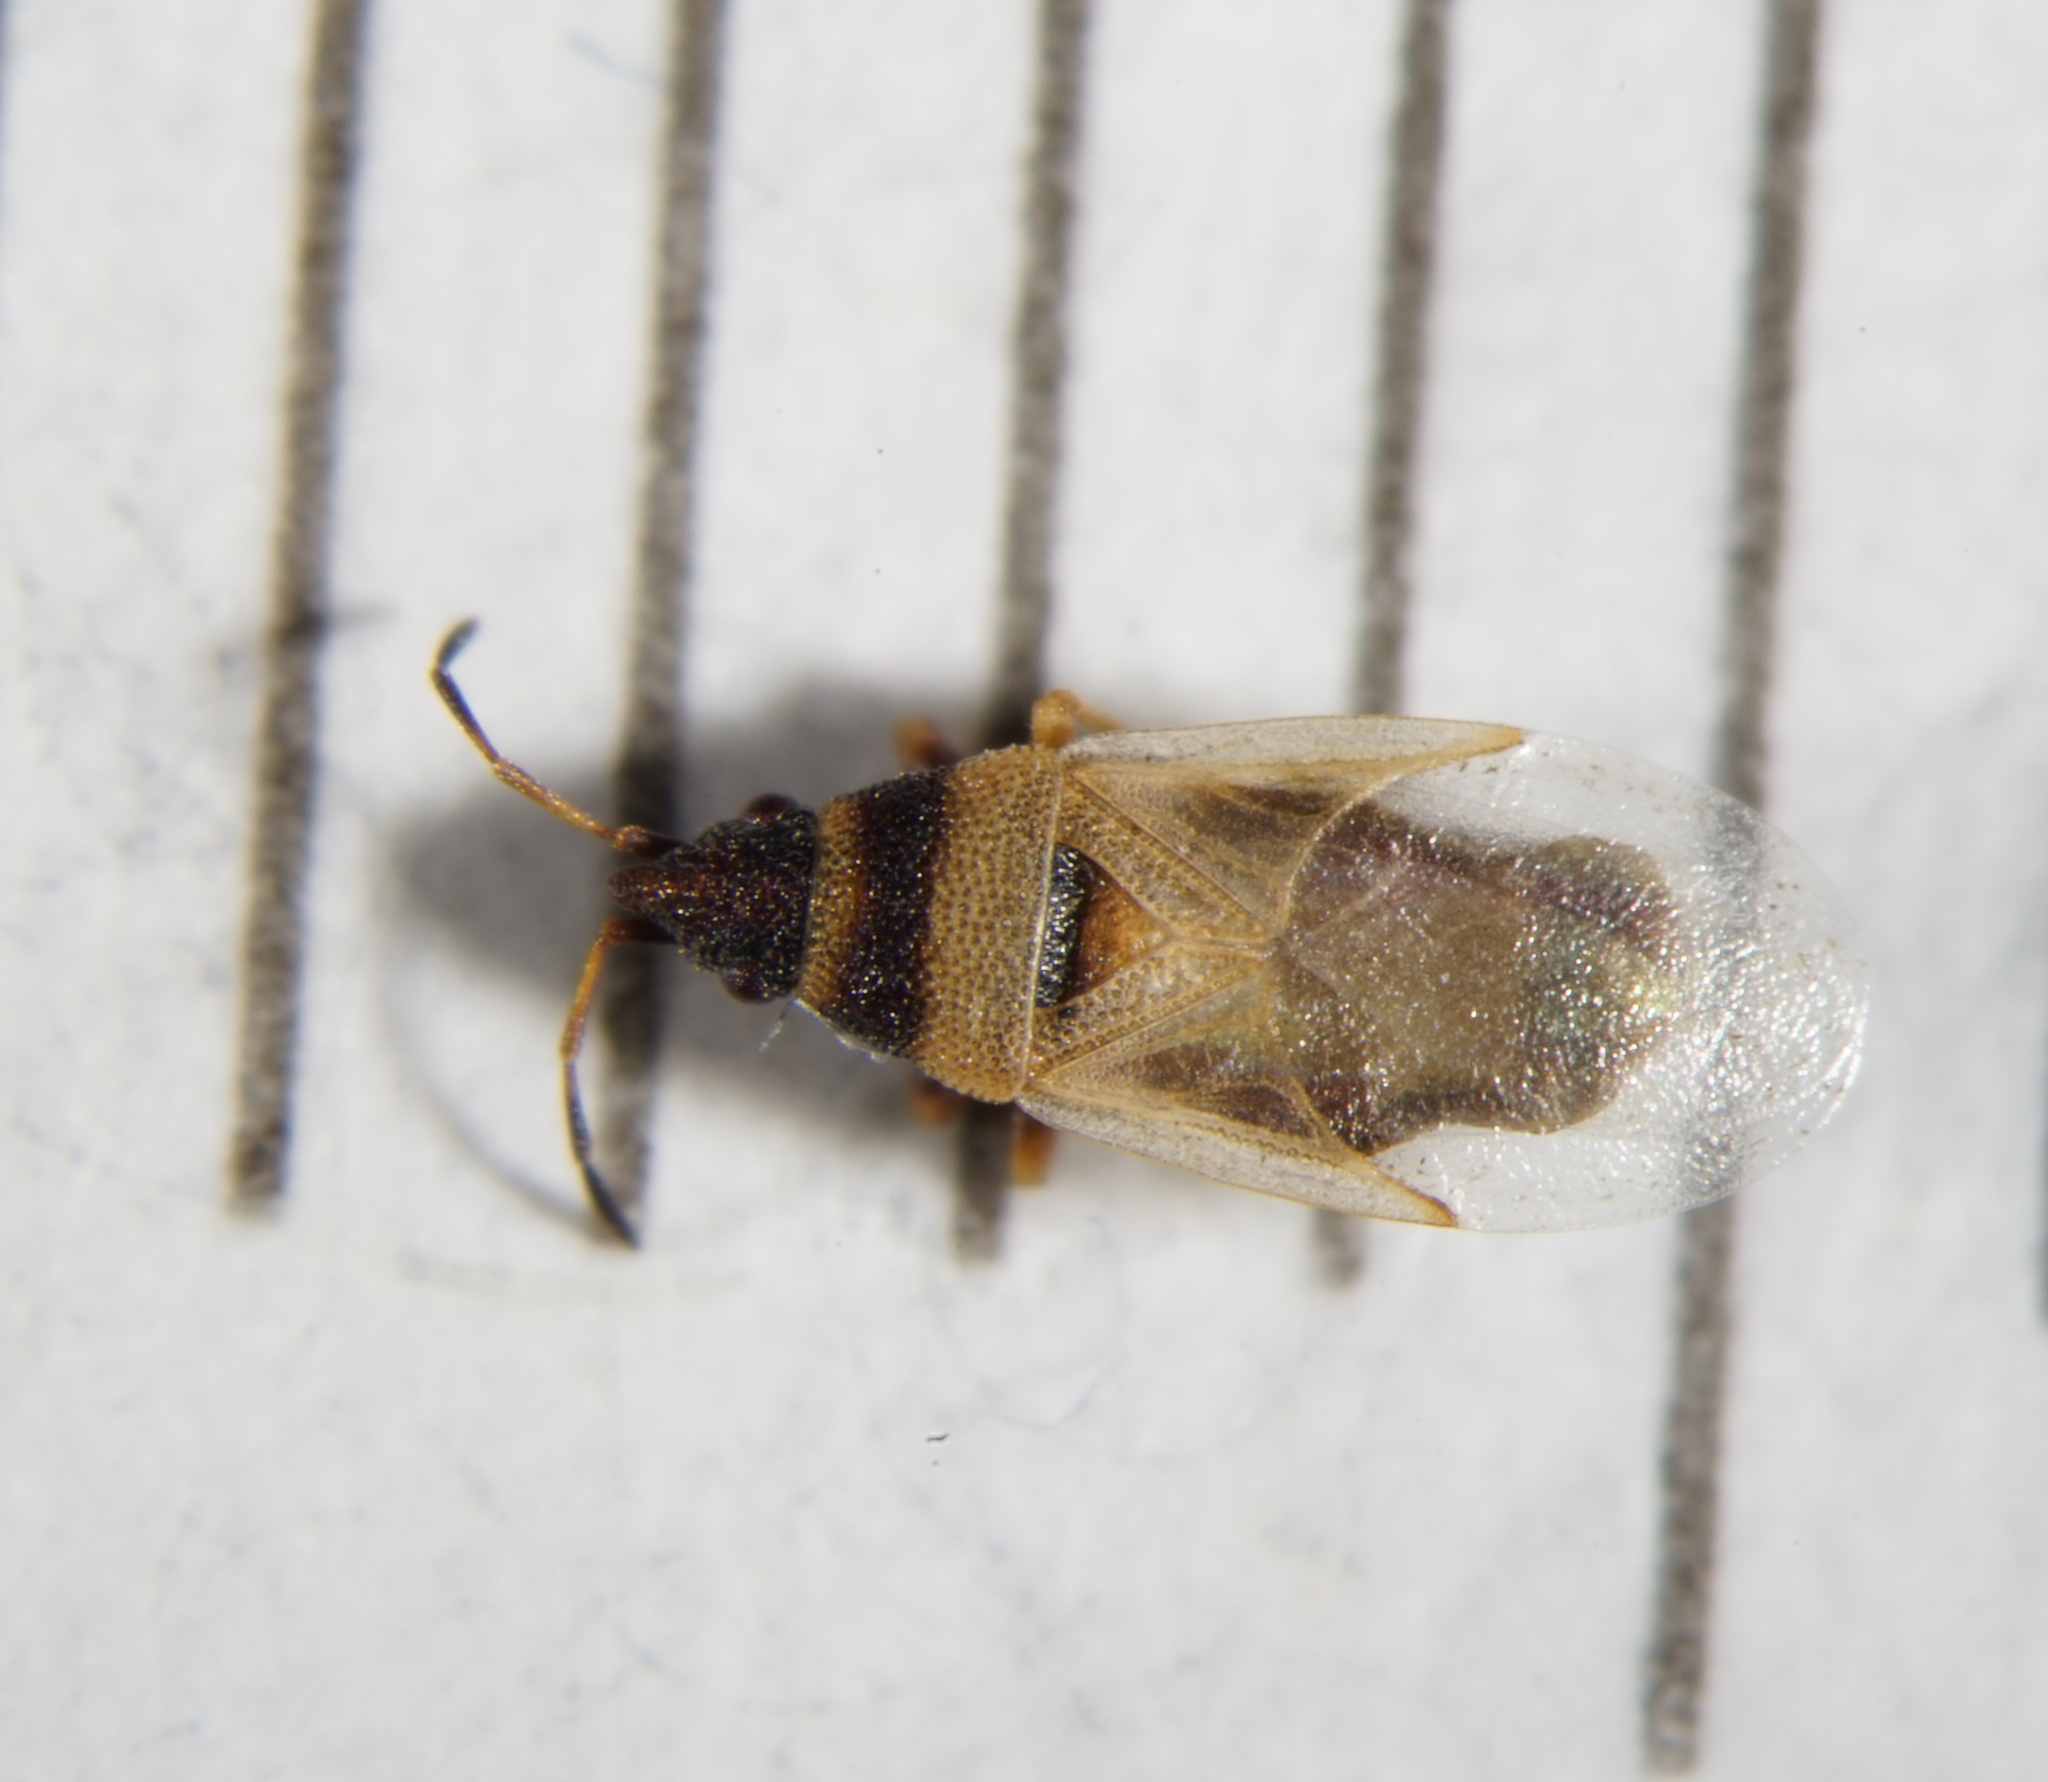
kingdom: Animalia
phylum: Arthropoda
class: Insecta
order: Hemiptera
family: Oxycarenidae
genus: Oxycarenus
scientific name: Oxycarenus pallens
